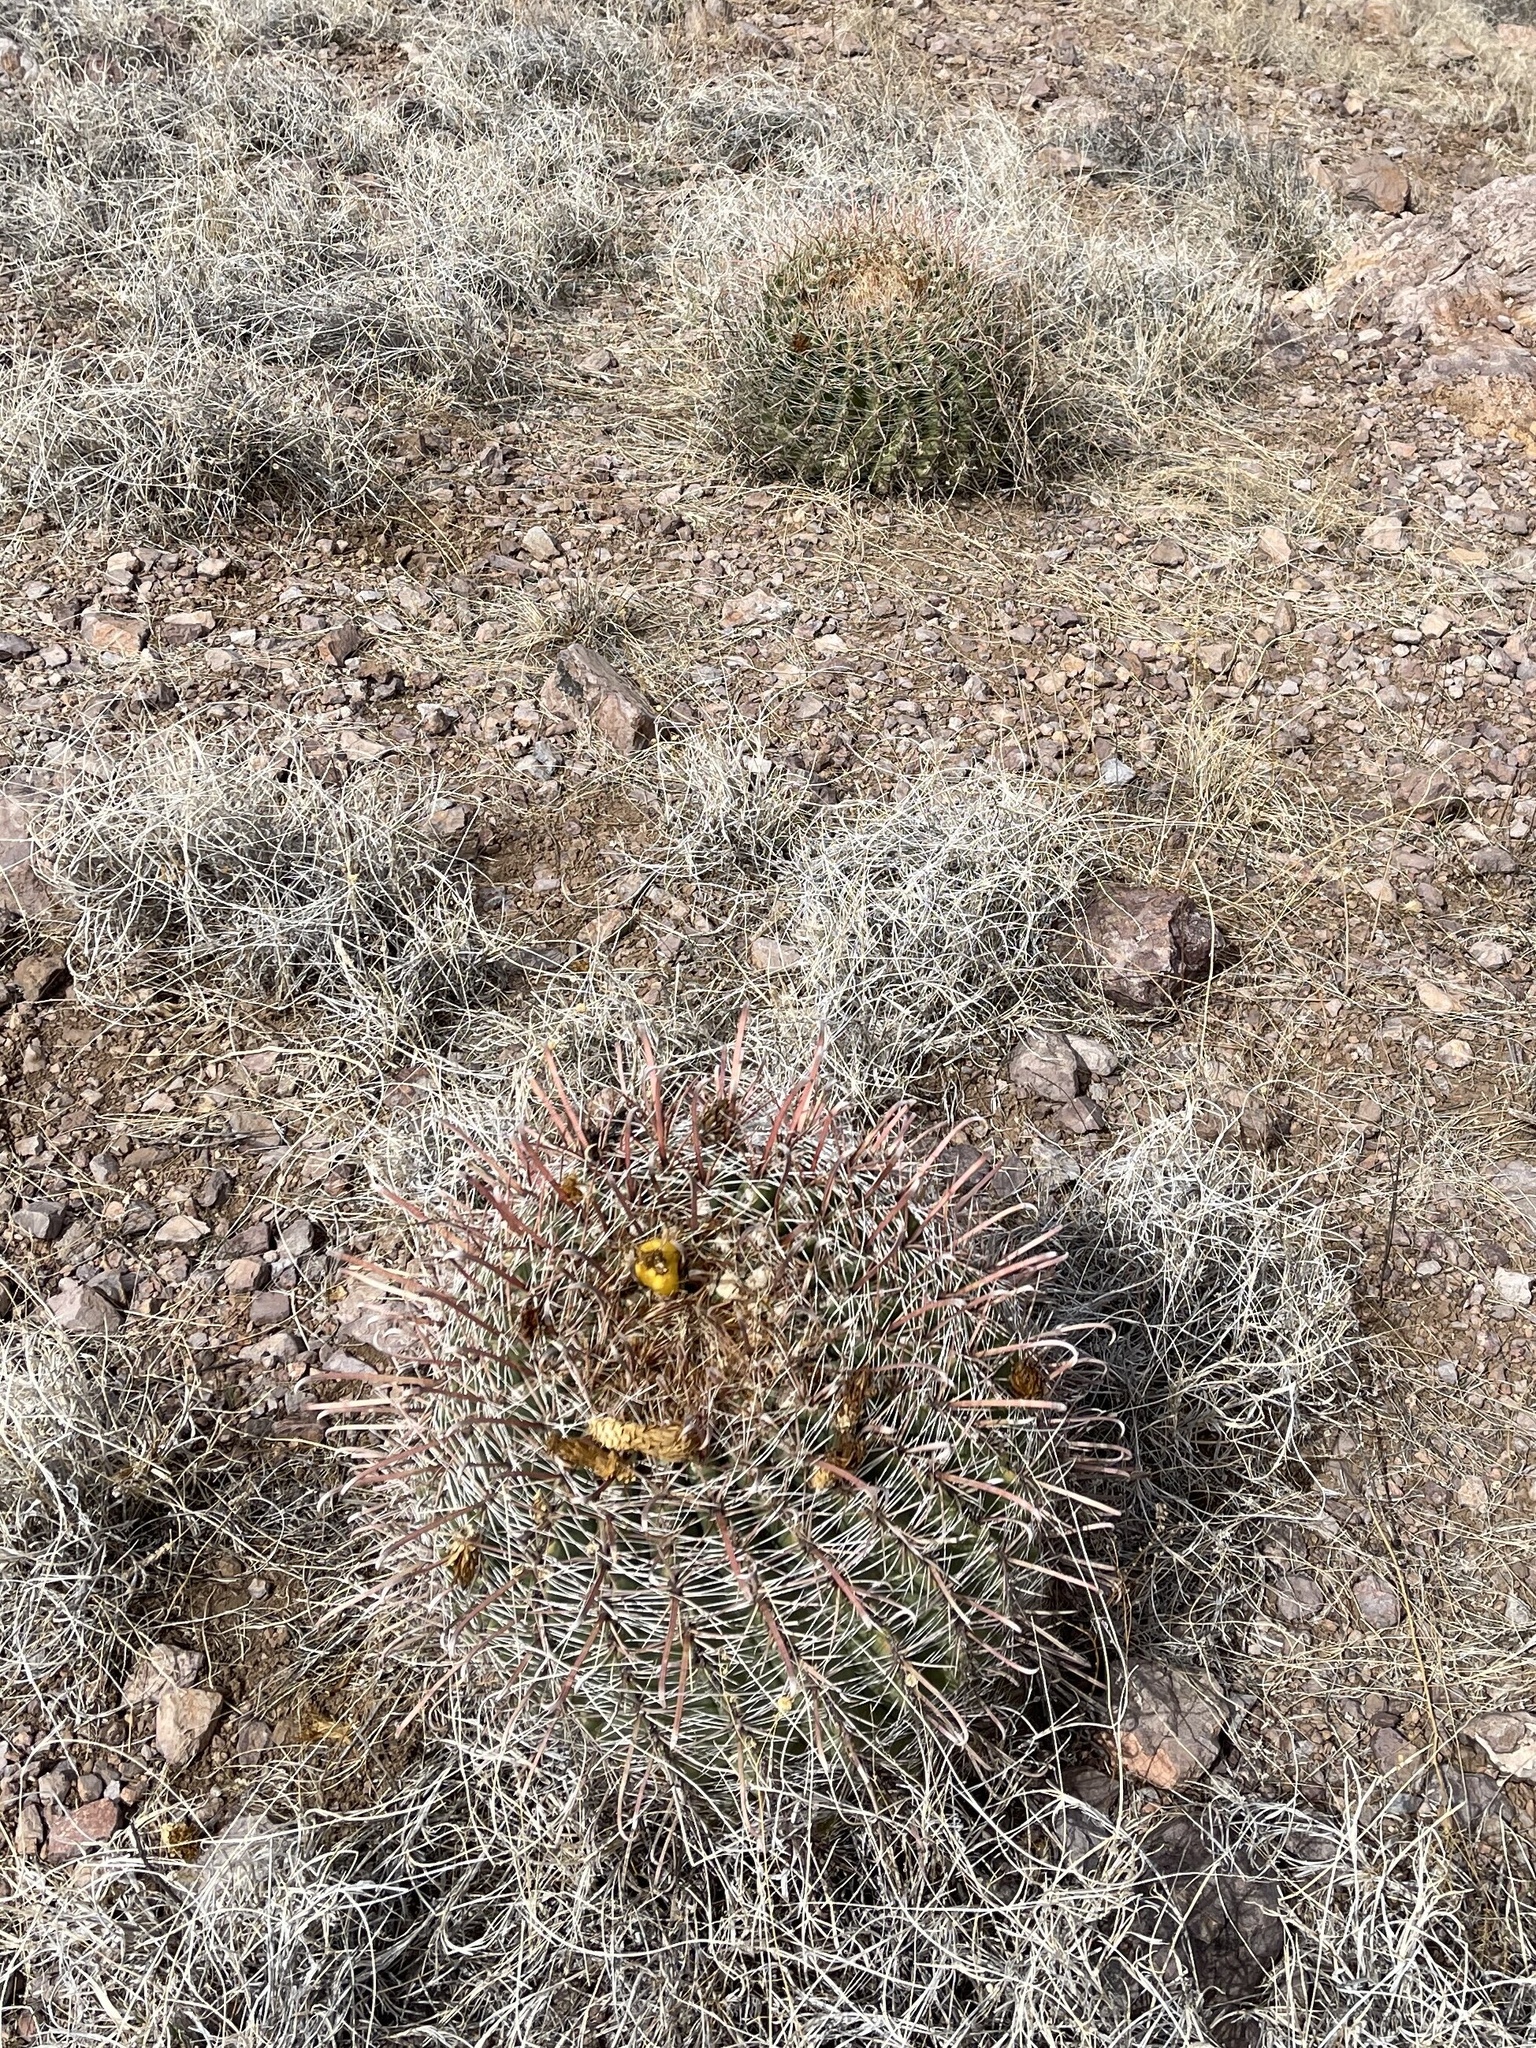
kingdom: Plantae
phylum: Tracheophyta
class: Magnoliopsida
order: Caryophyllales
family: Cactaceae
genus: Ferocactus
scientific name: Ferocactus wislizeni
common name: Candy barrel cactus
